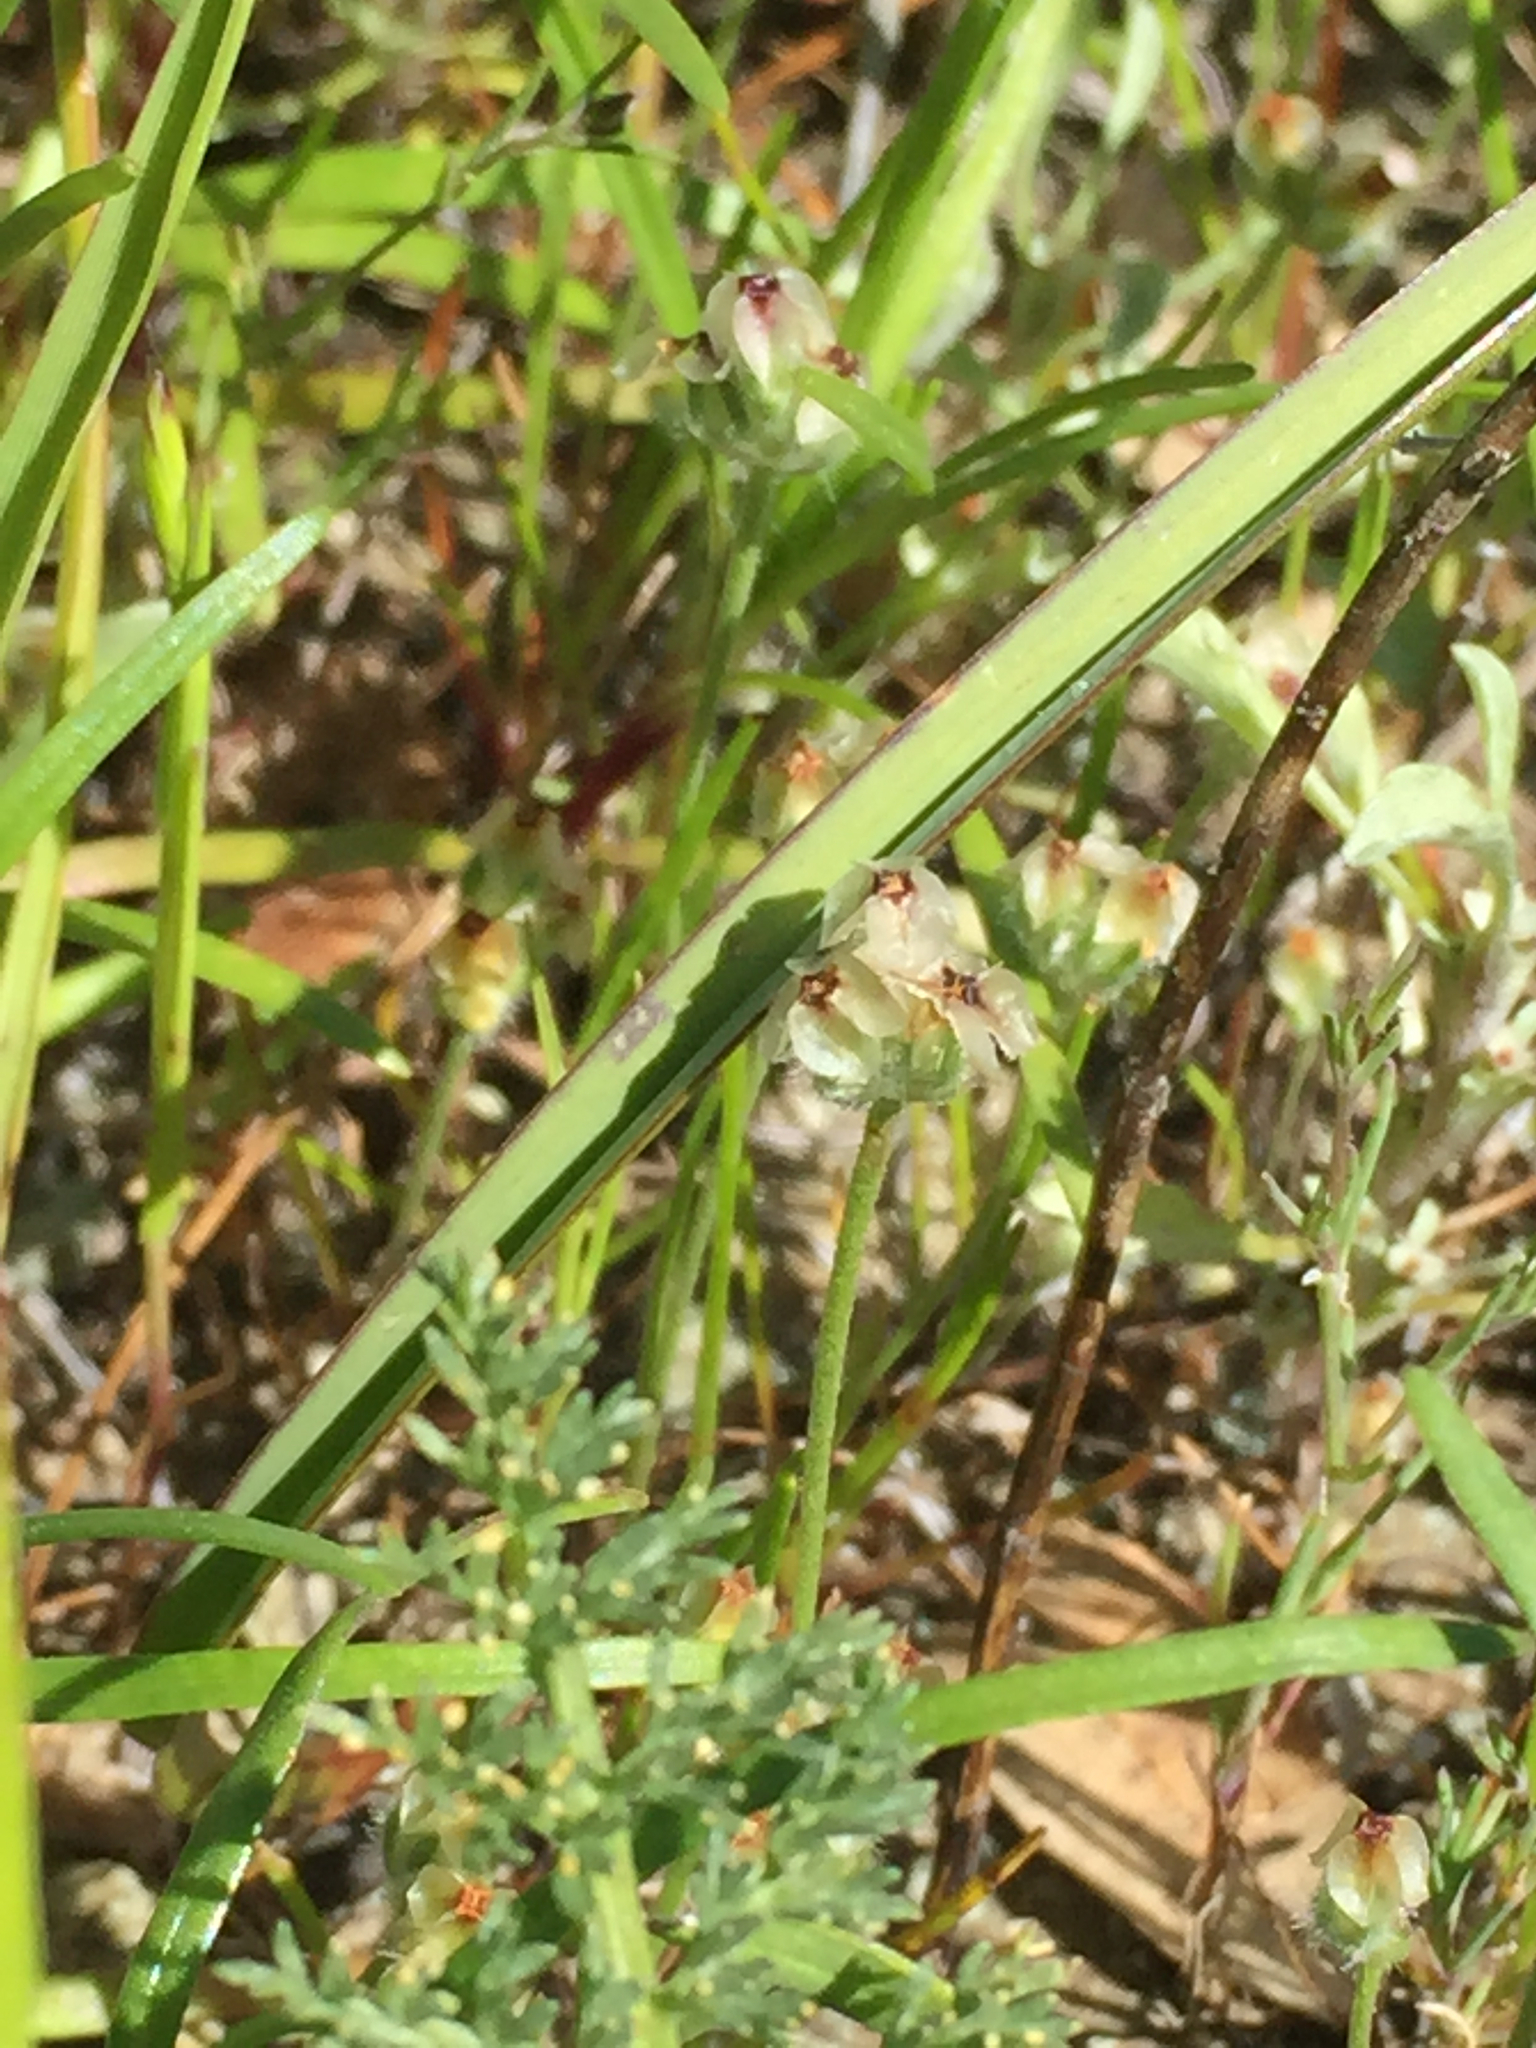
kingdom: Plantae
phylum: Tracheophyta
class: Magnoliopsida
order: Lamiales
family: Plantaginaceae
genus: Plantago
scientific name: Plantago erecta
